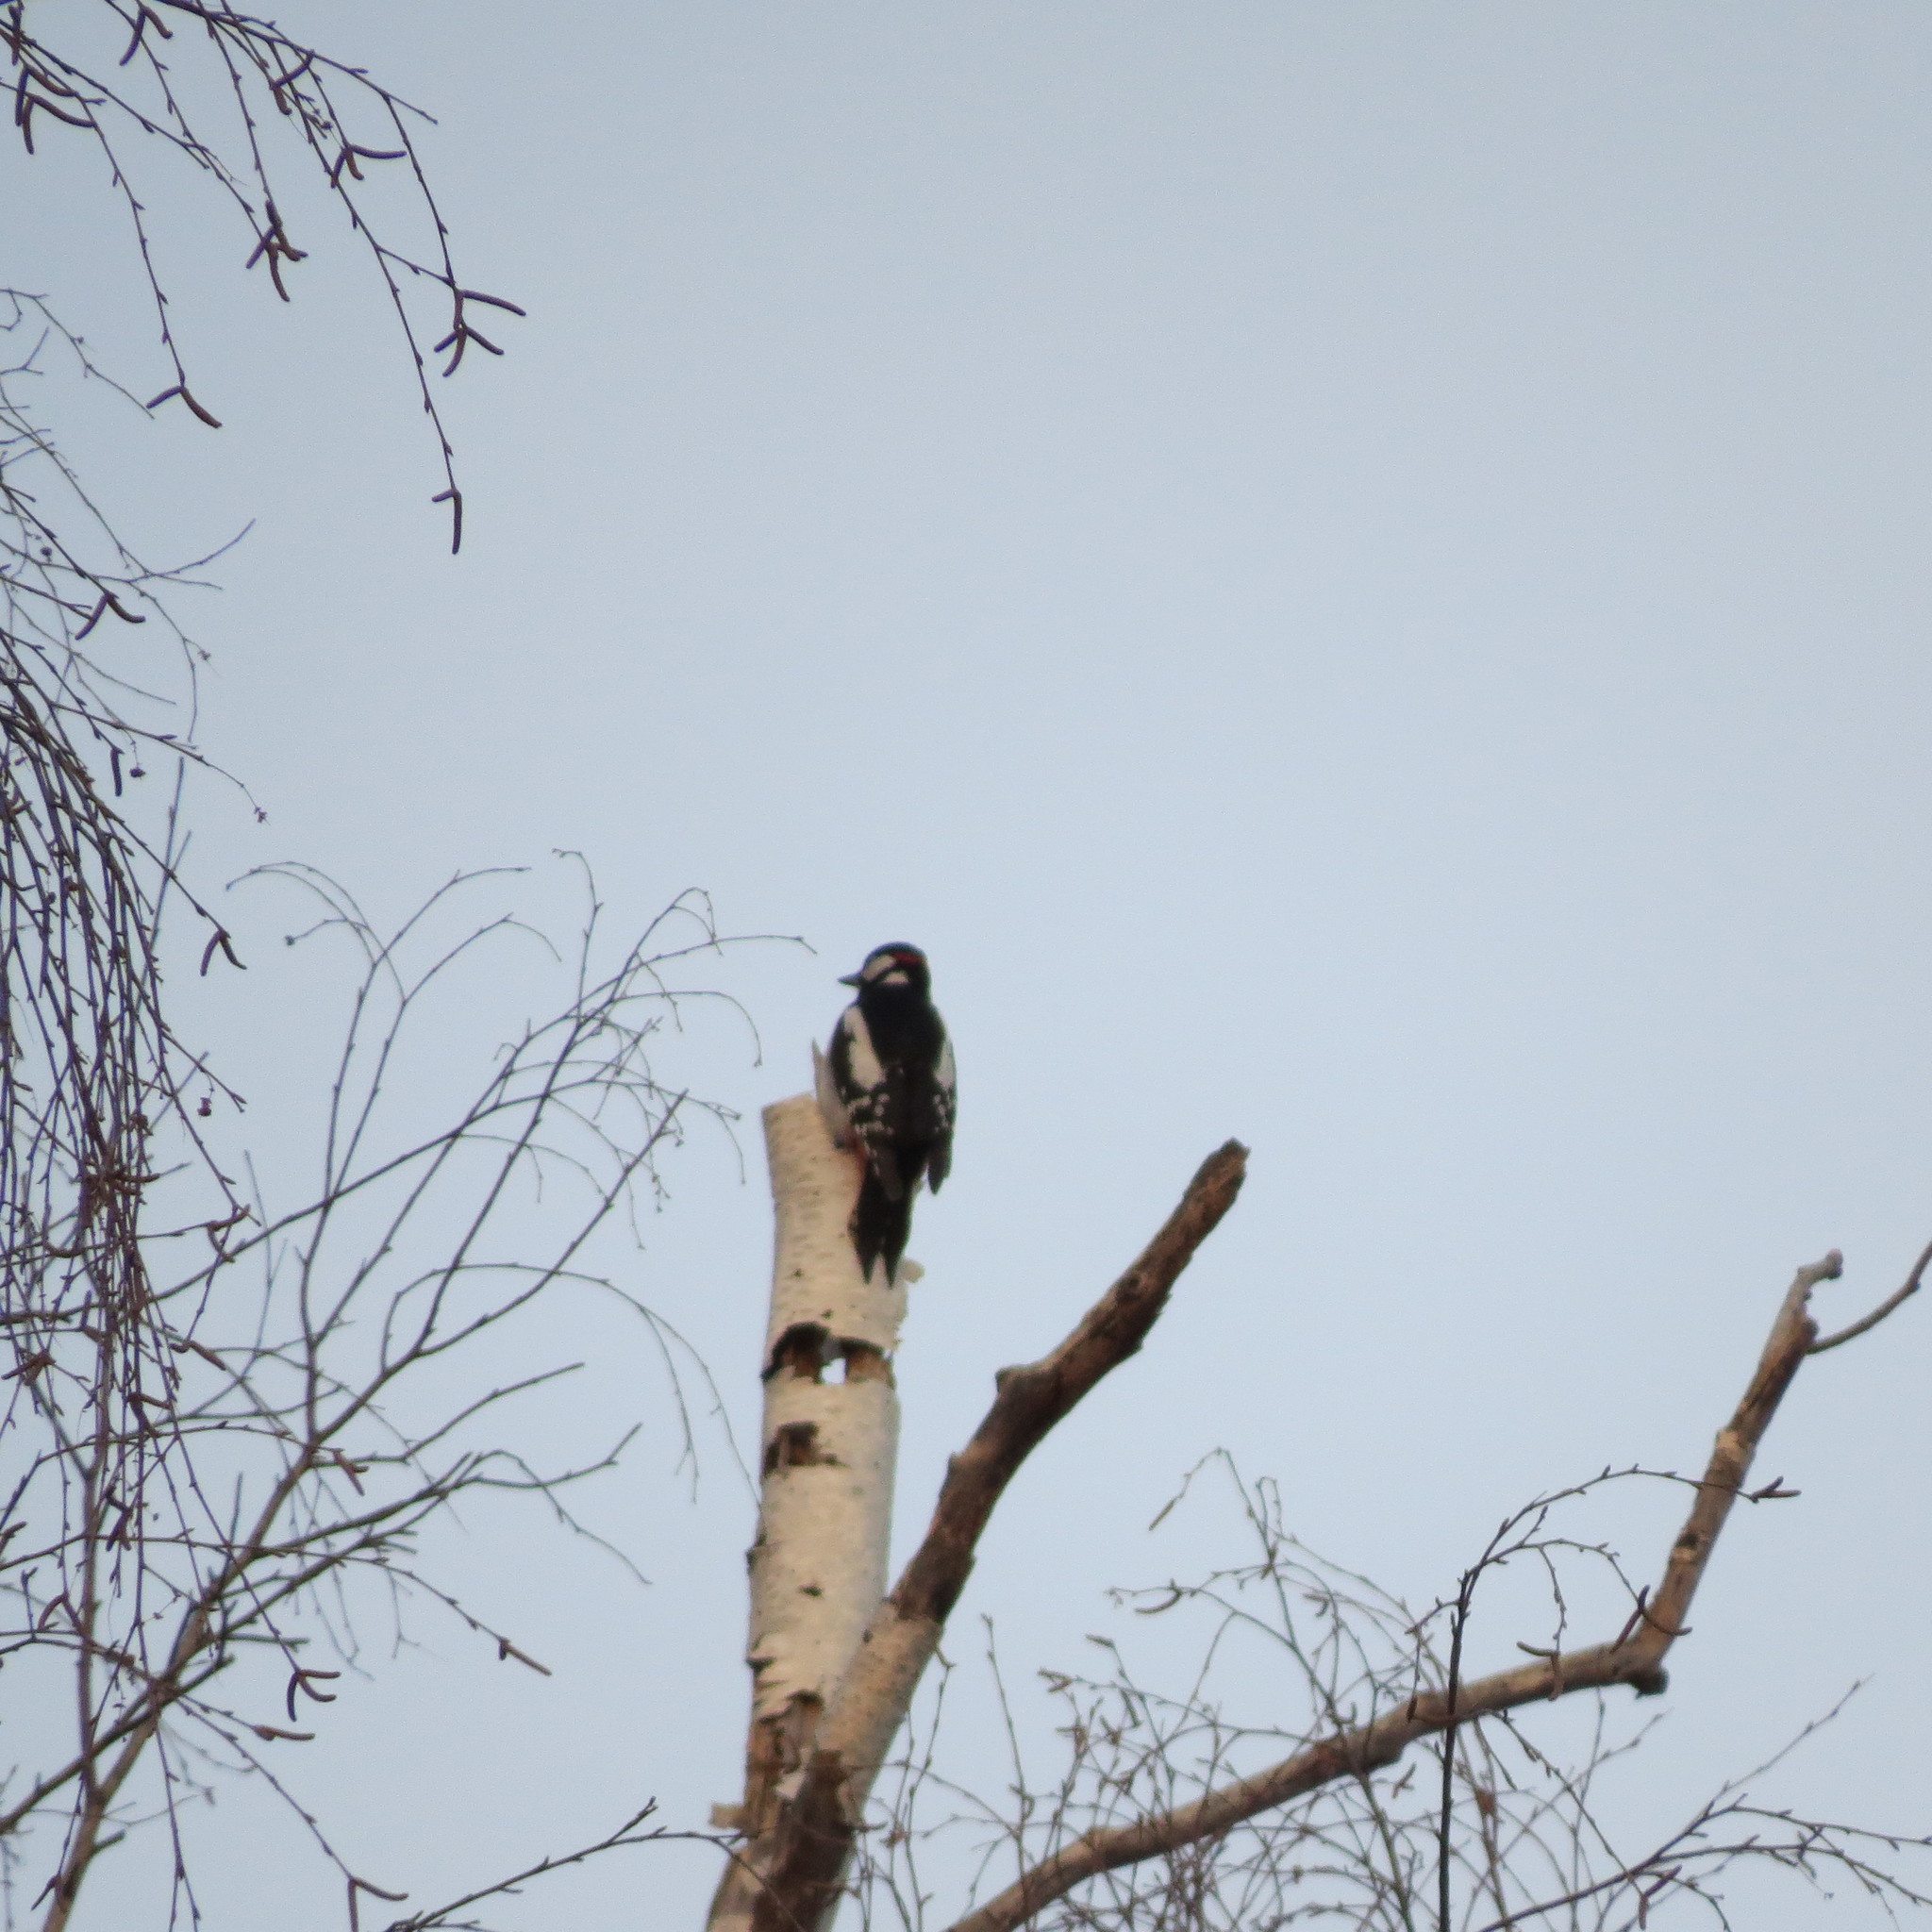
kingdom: Animalia
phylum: Chordata
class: Aves
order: Piciformes
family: Picidae
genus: Dendrocopos
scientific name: Dendrocopos major
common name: Great spotted woodpecker
